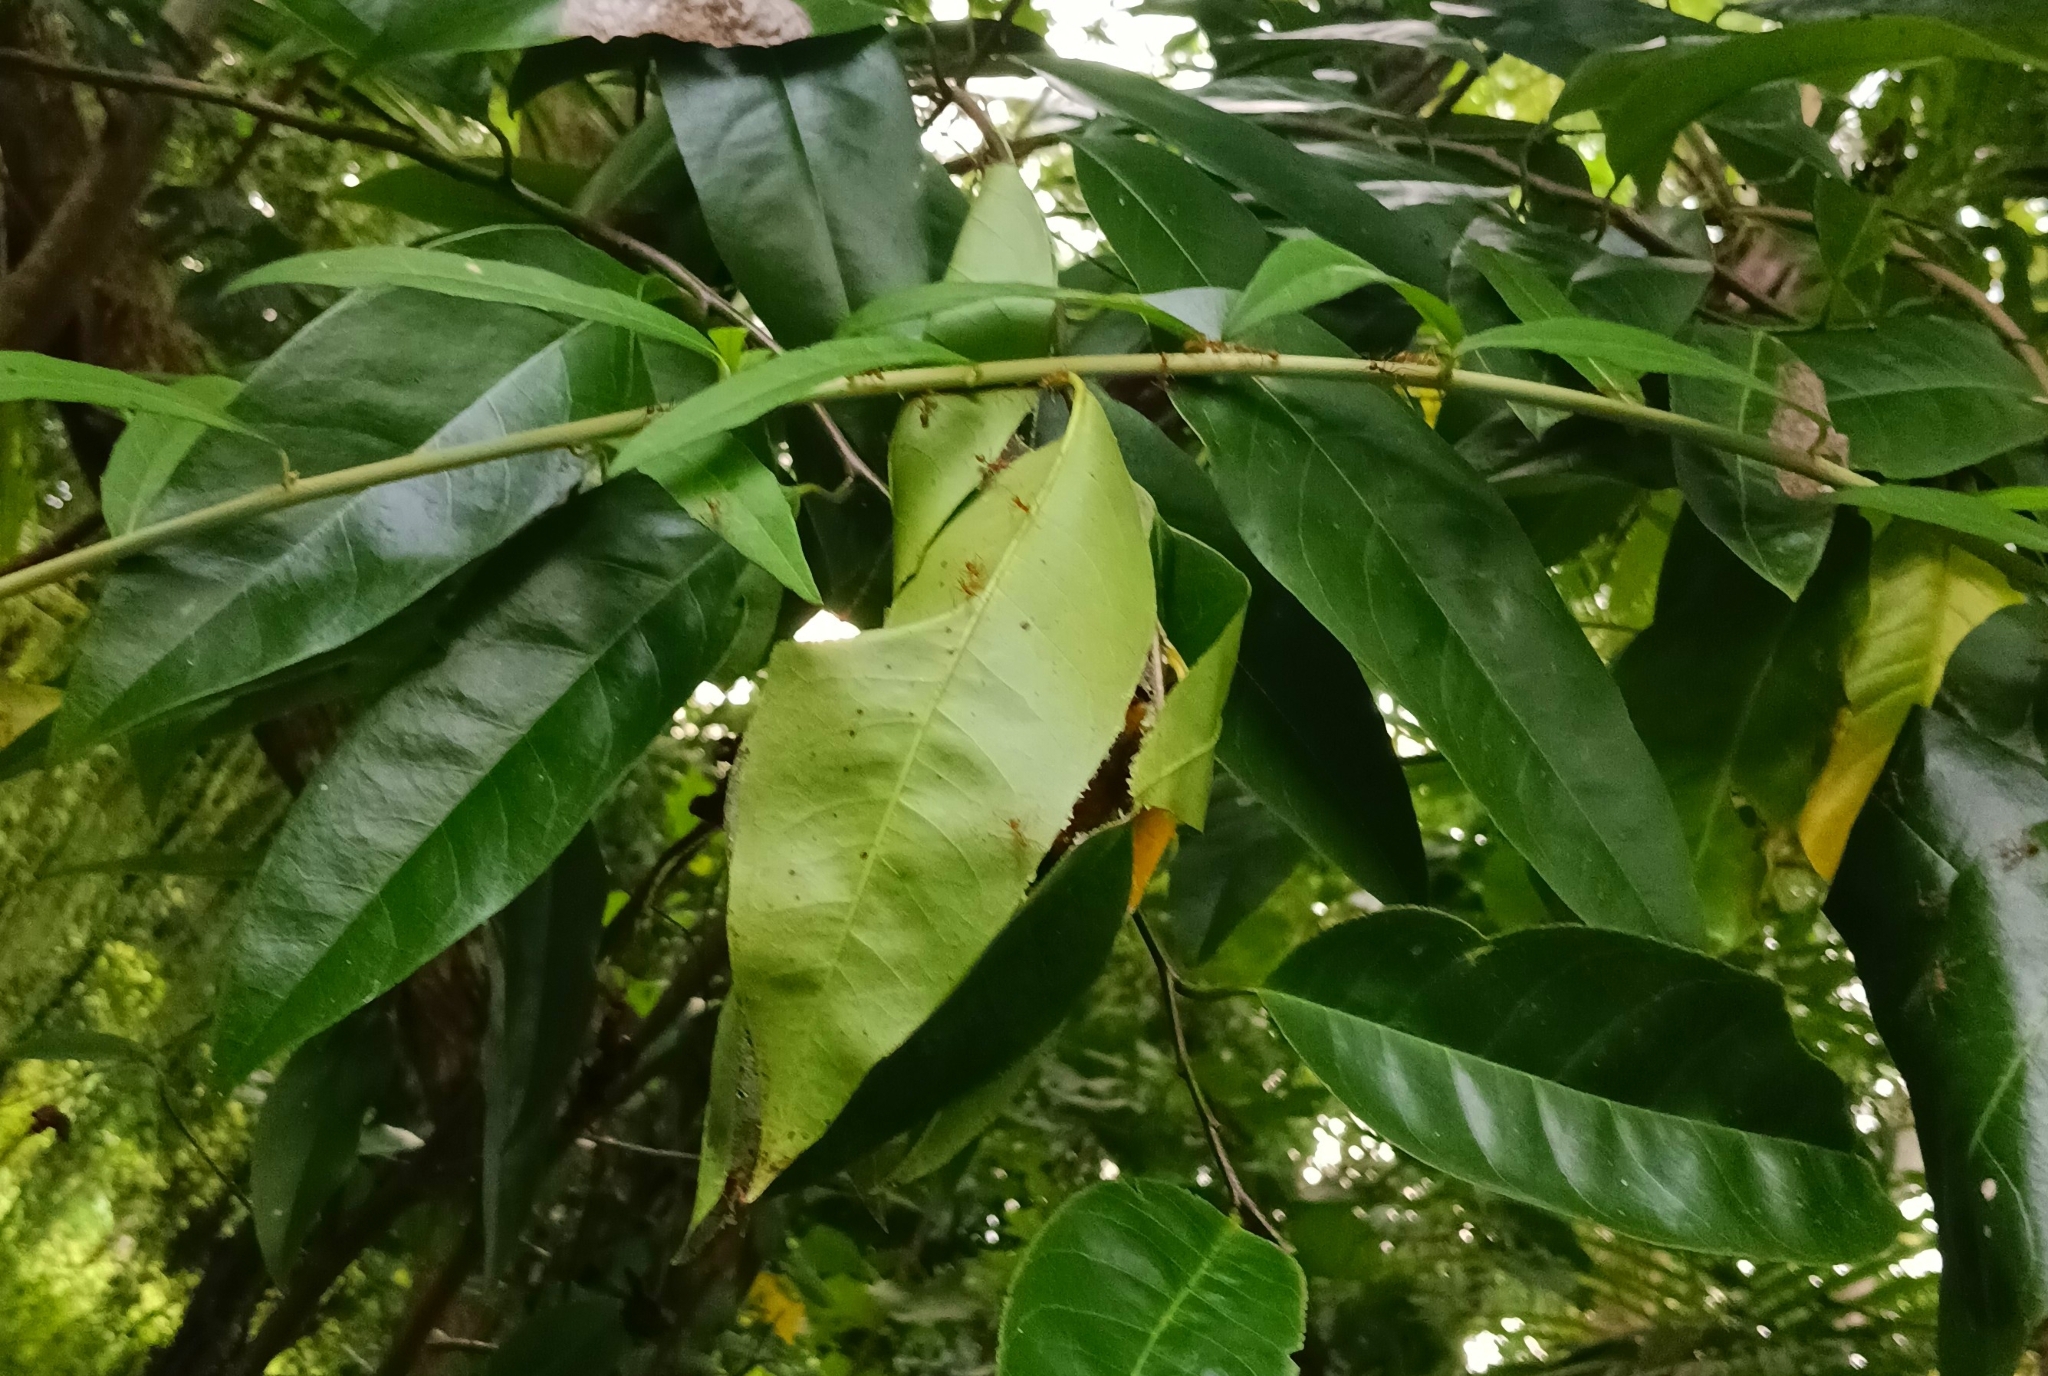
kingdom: Animalia
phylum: Arthropoda
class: Insecta
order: Hymenoptera
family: Formicidae
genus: Oecophylla
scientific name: Oecophylla smaragdina
